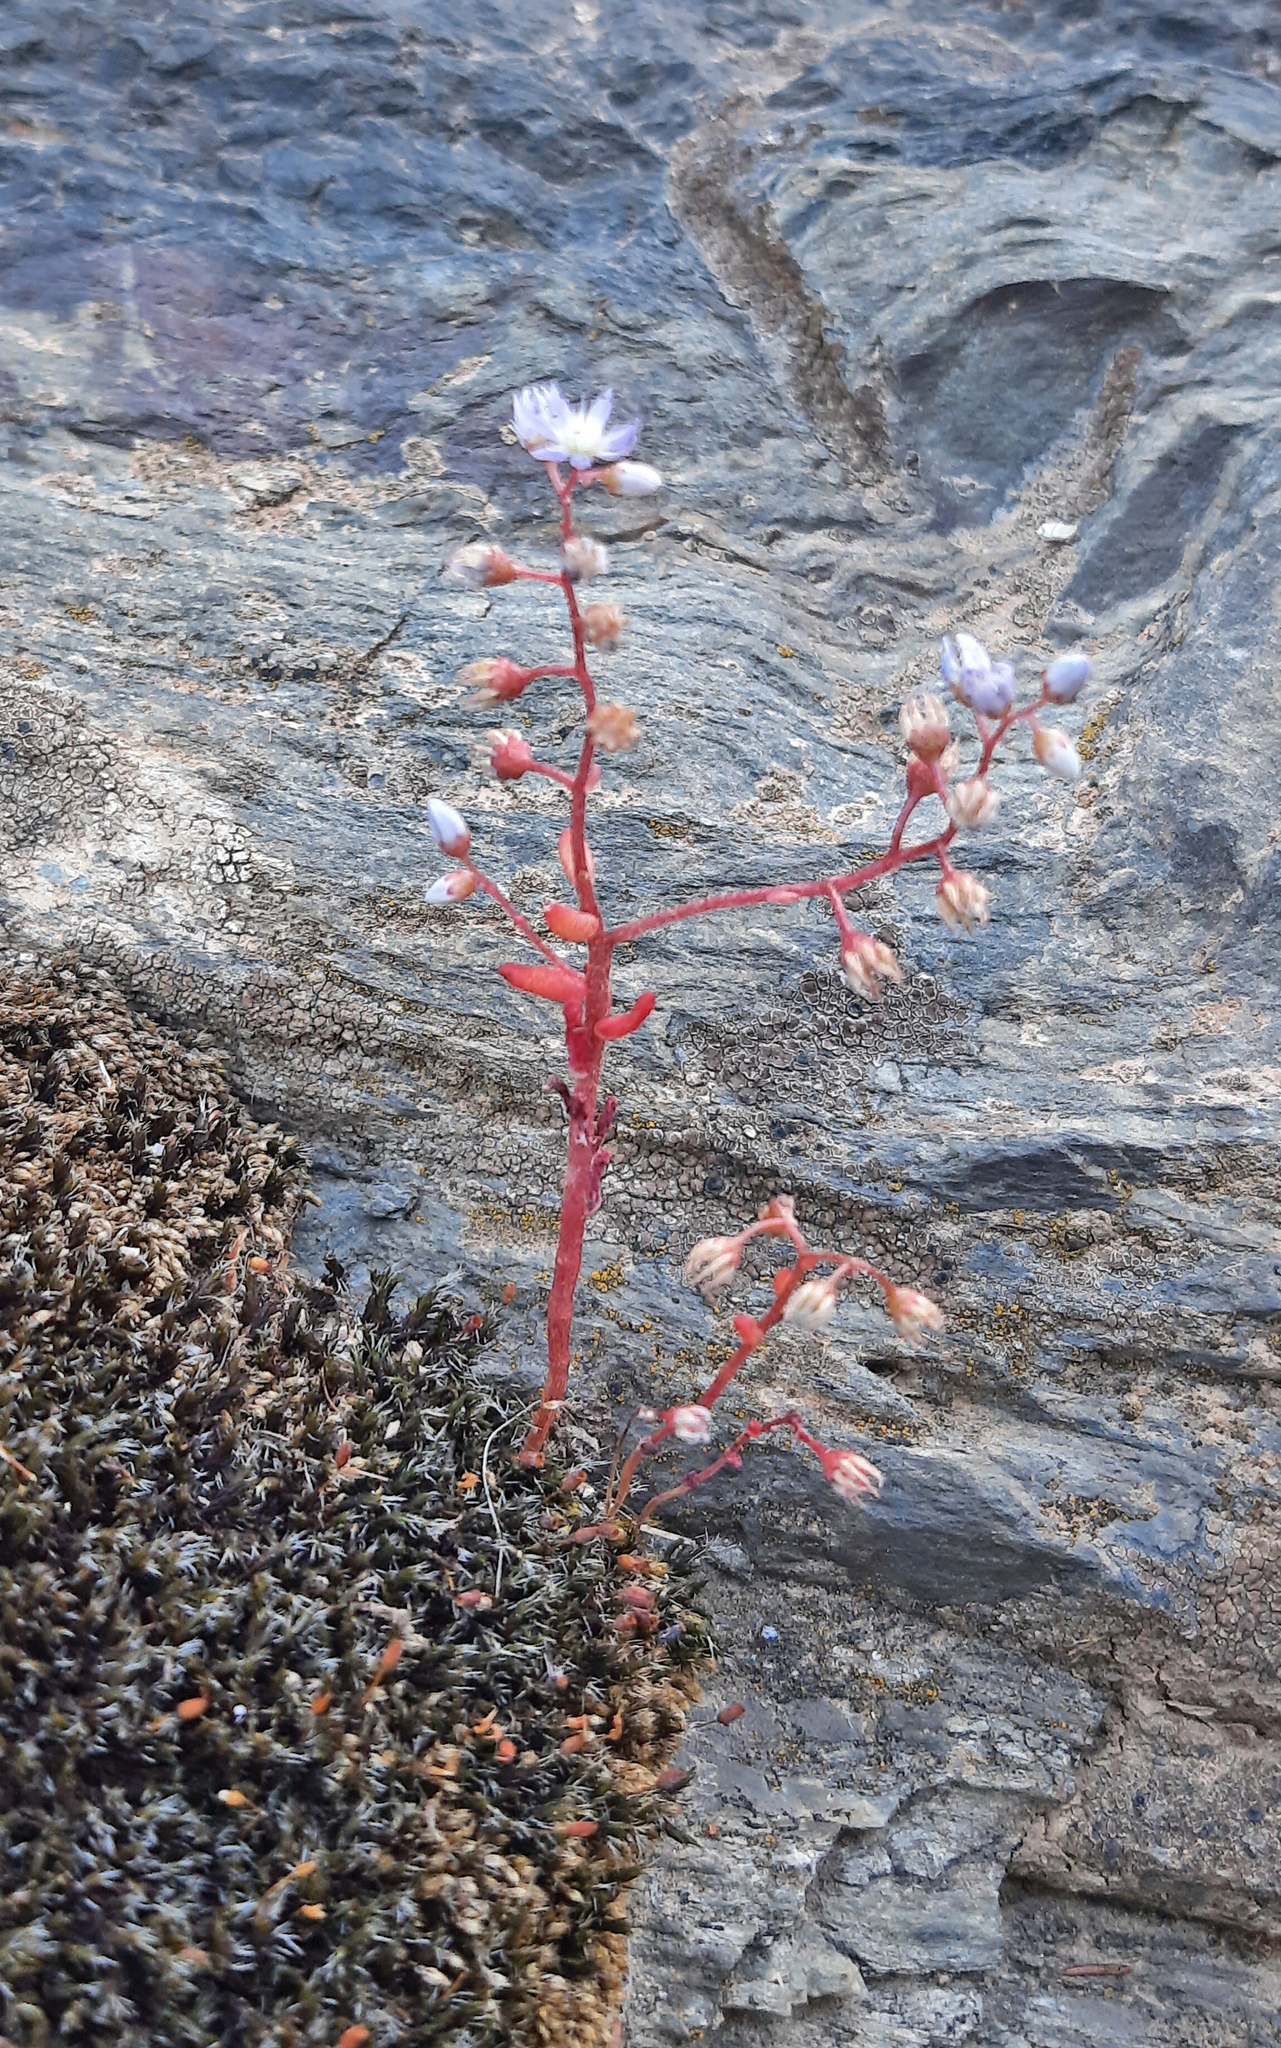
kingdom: Plantae
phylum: Tracheophyta
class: Magnoliopsida
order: Saxifragales
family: Crassulaceae
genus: Sedum
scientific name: Sedum caeruleum
